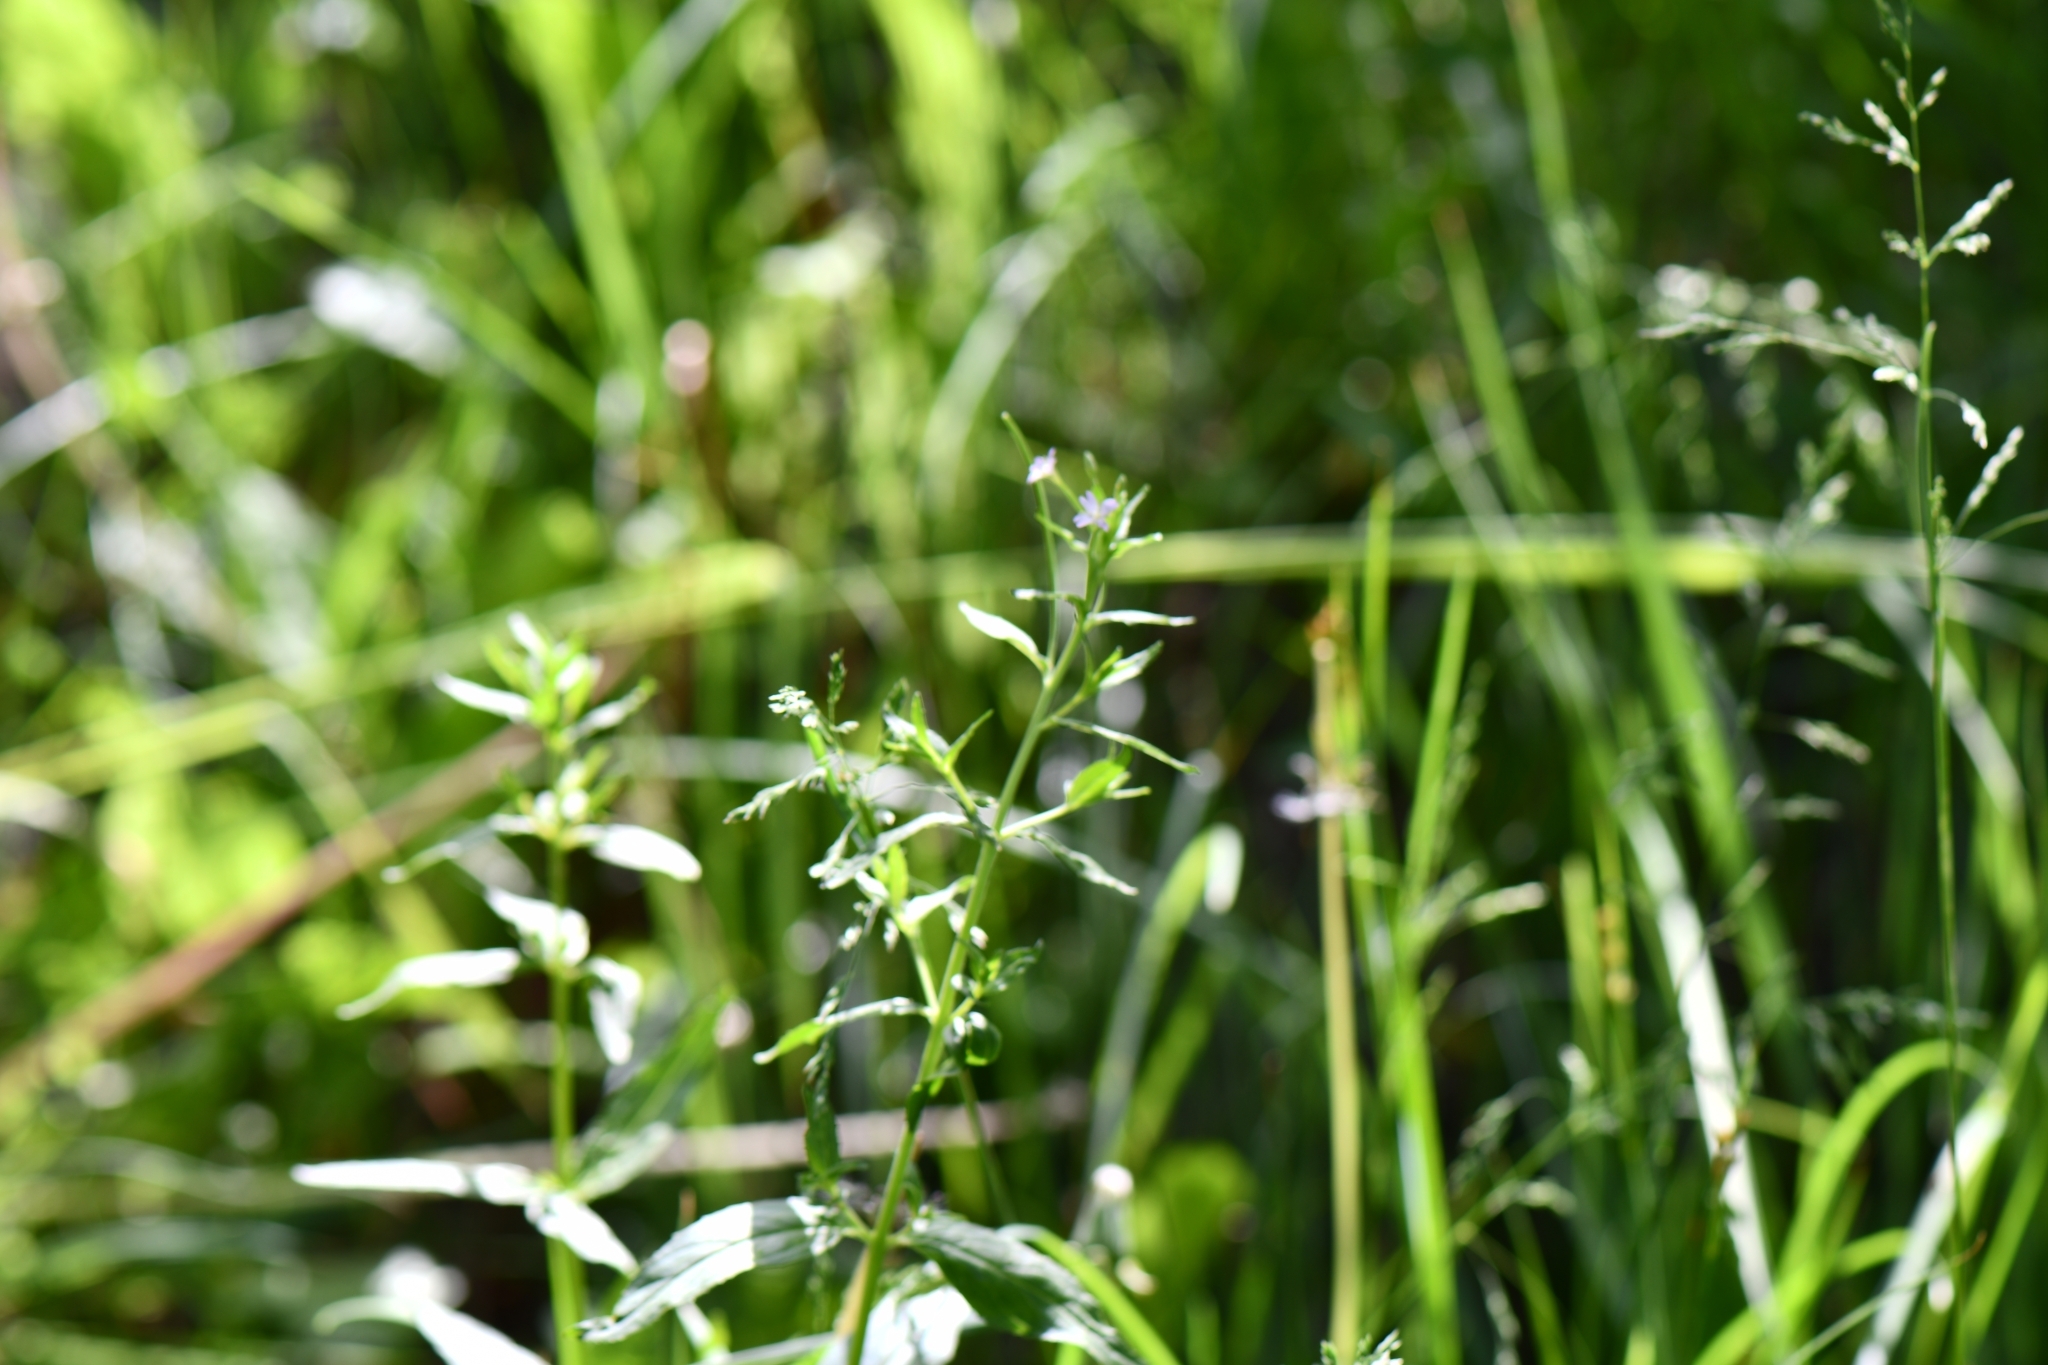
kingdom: Plantae
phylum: Tracheophyta
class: Magnoliopsida
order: Myrtales
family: Onagraceae
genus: Epilobium
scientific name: Epilobium ciliatum
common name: American willowherb
